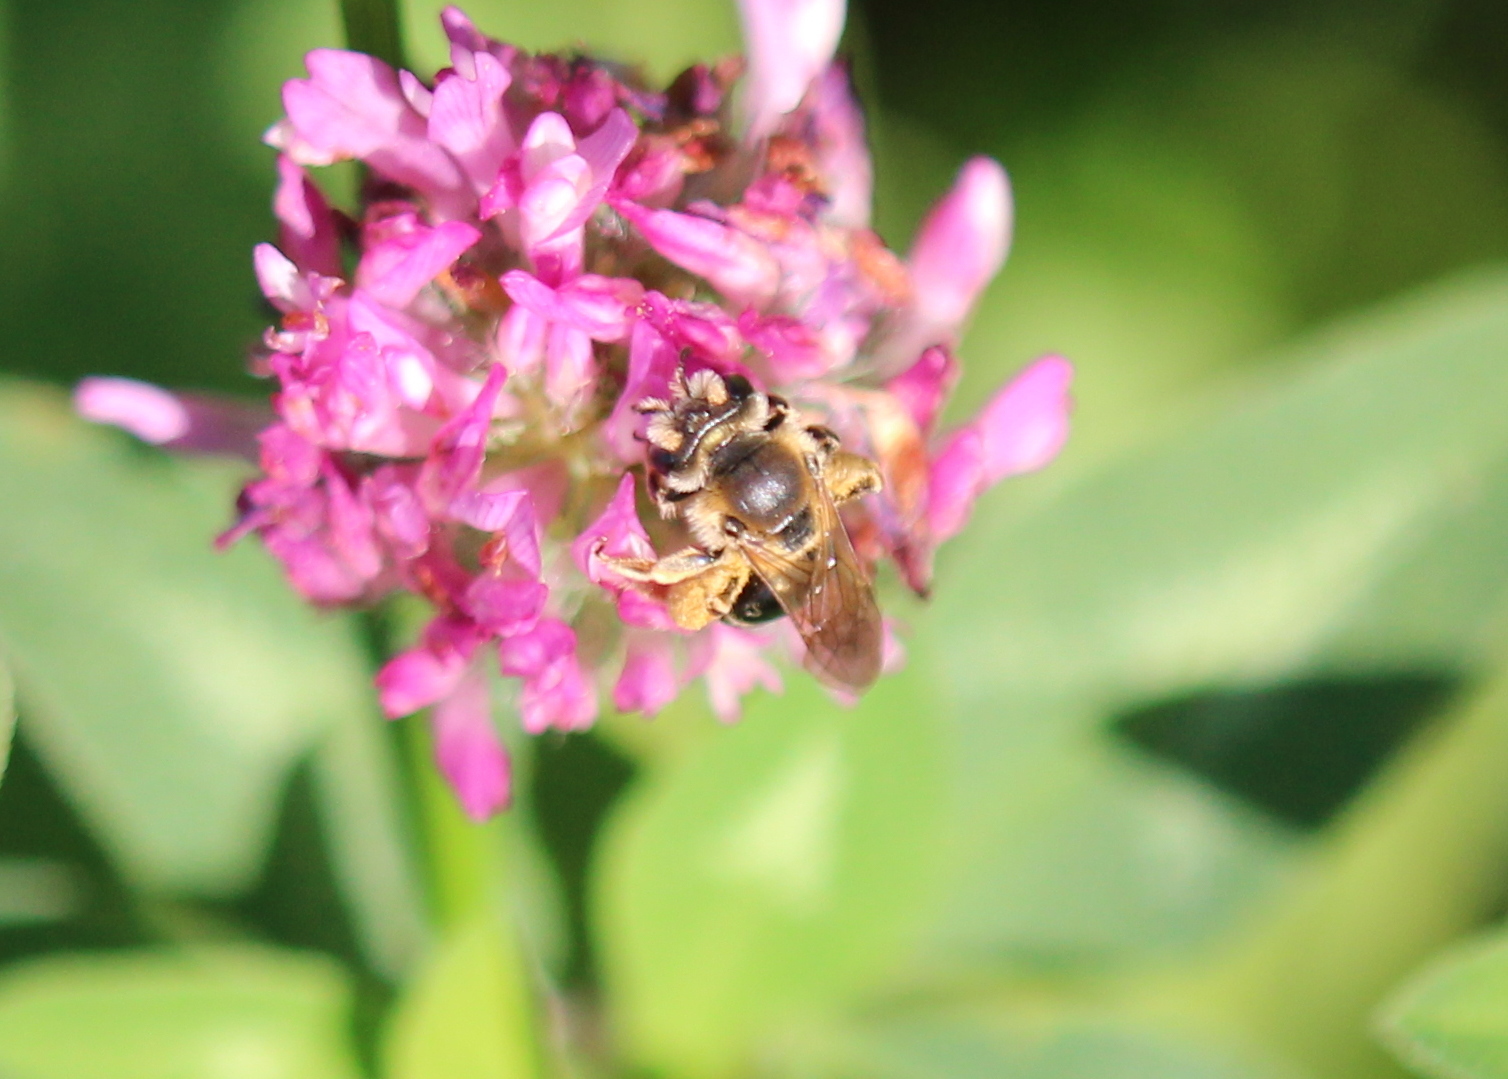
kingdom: Animalia
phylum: Arthropoda
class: Insecta
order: Hymenoptera
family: Andrenidae
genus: Andrena
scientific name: Andrena wilkella
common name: Wilke's mining bee
